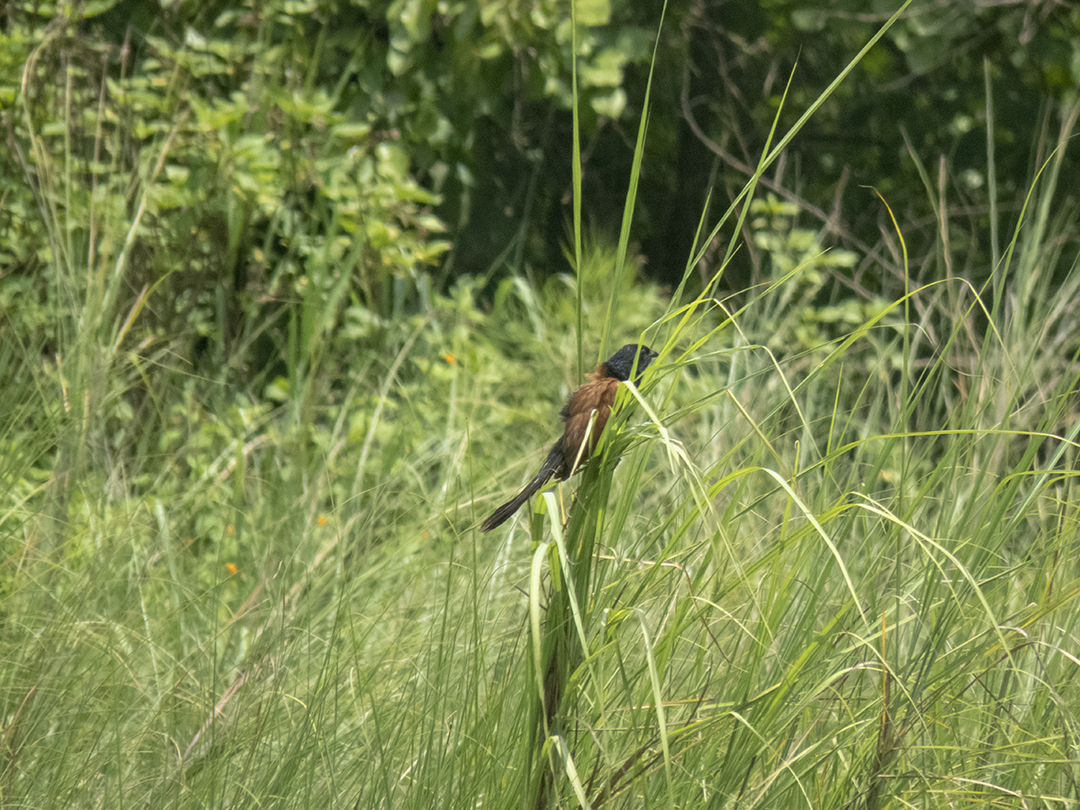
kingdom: Animalia
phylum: Chordata
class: Aves
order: Cuculiformes
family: Cuculidae
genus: Centropus
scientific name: Centropus bengalensis
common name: Lesser coucal
